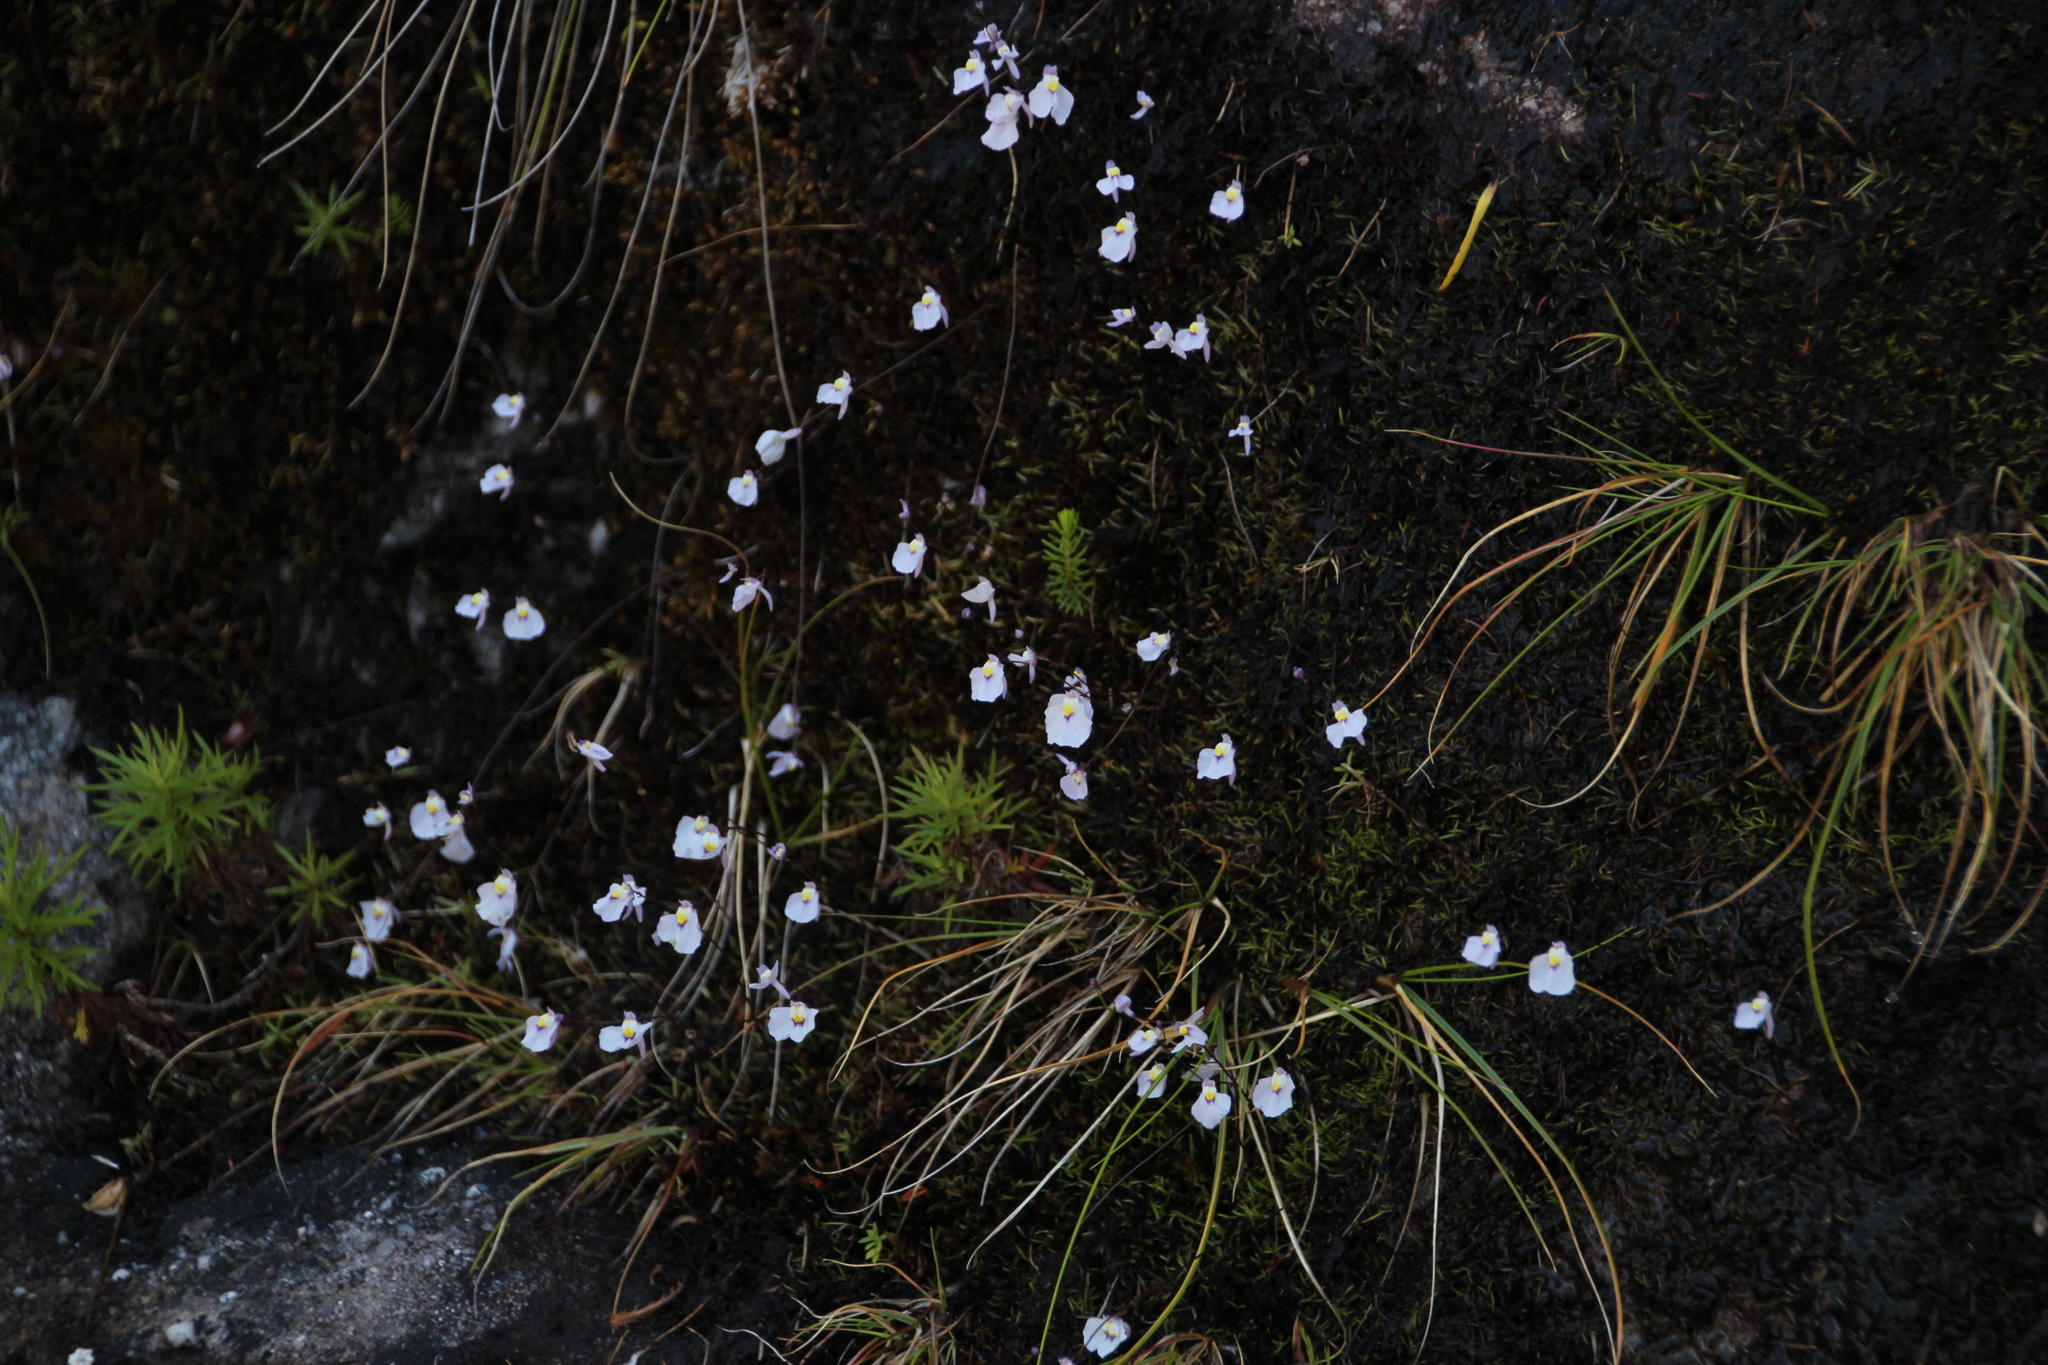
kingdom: Plantae
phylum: Tracheophyta
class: Magnoliopsida
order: Lamiales
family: Lentibulariaceae
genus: Utricularia
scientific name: Utricularia bisquamata
